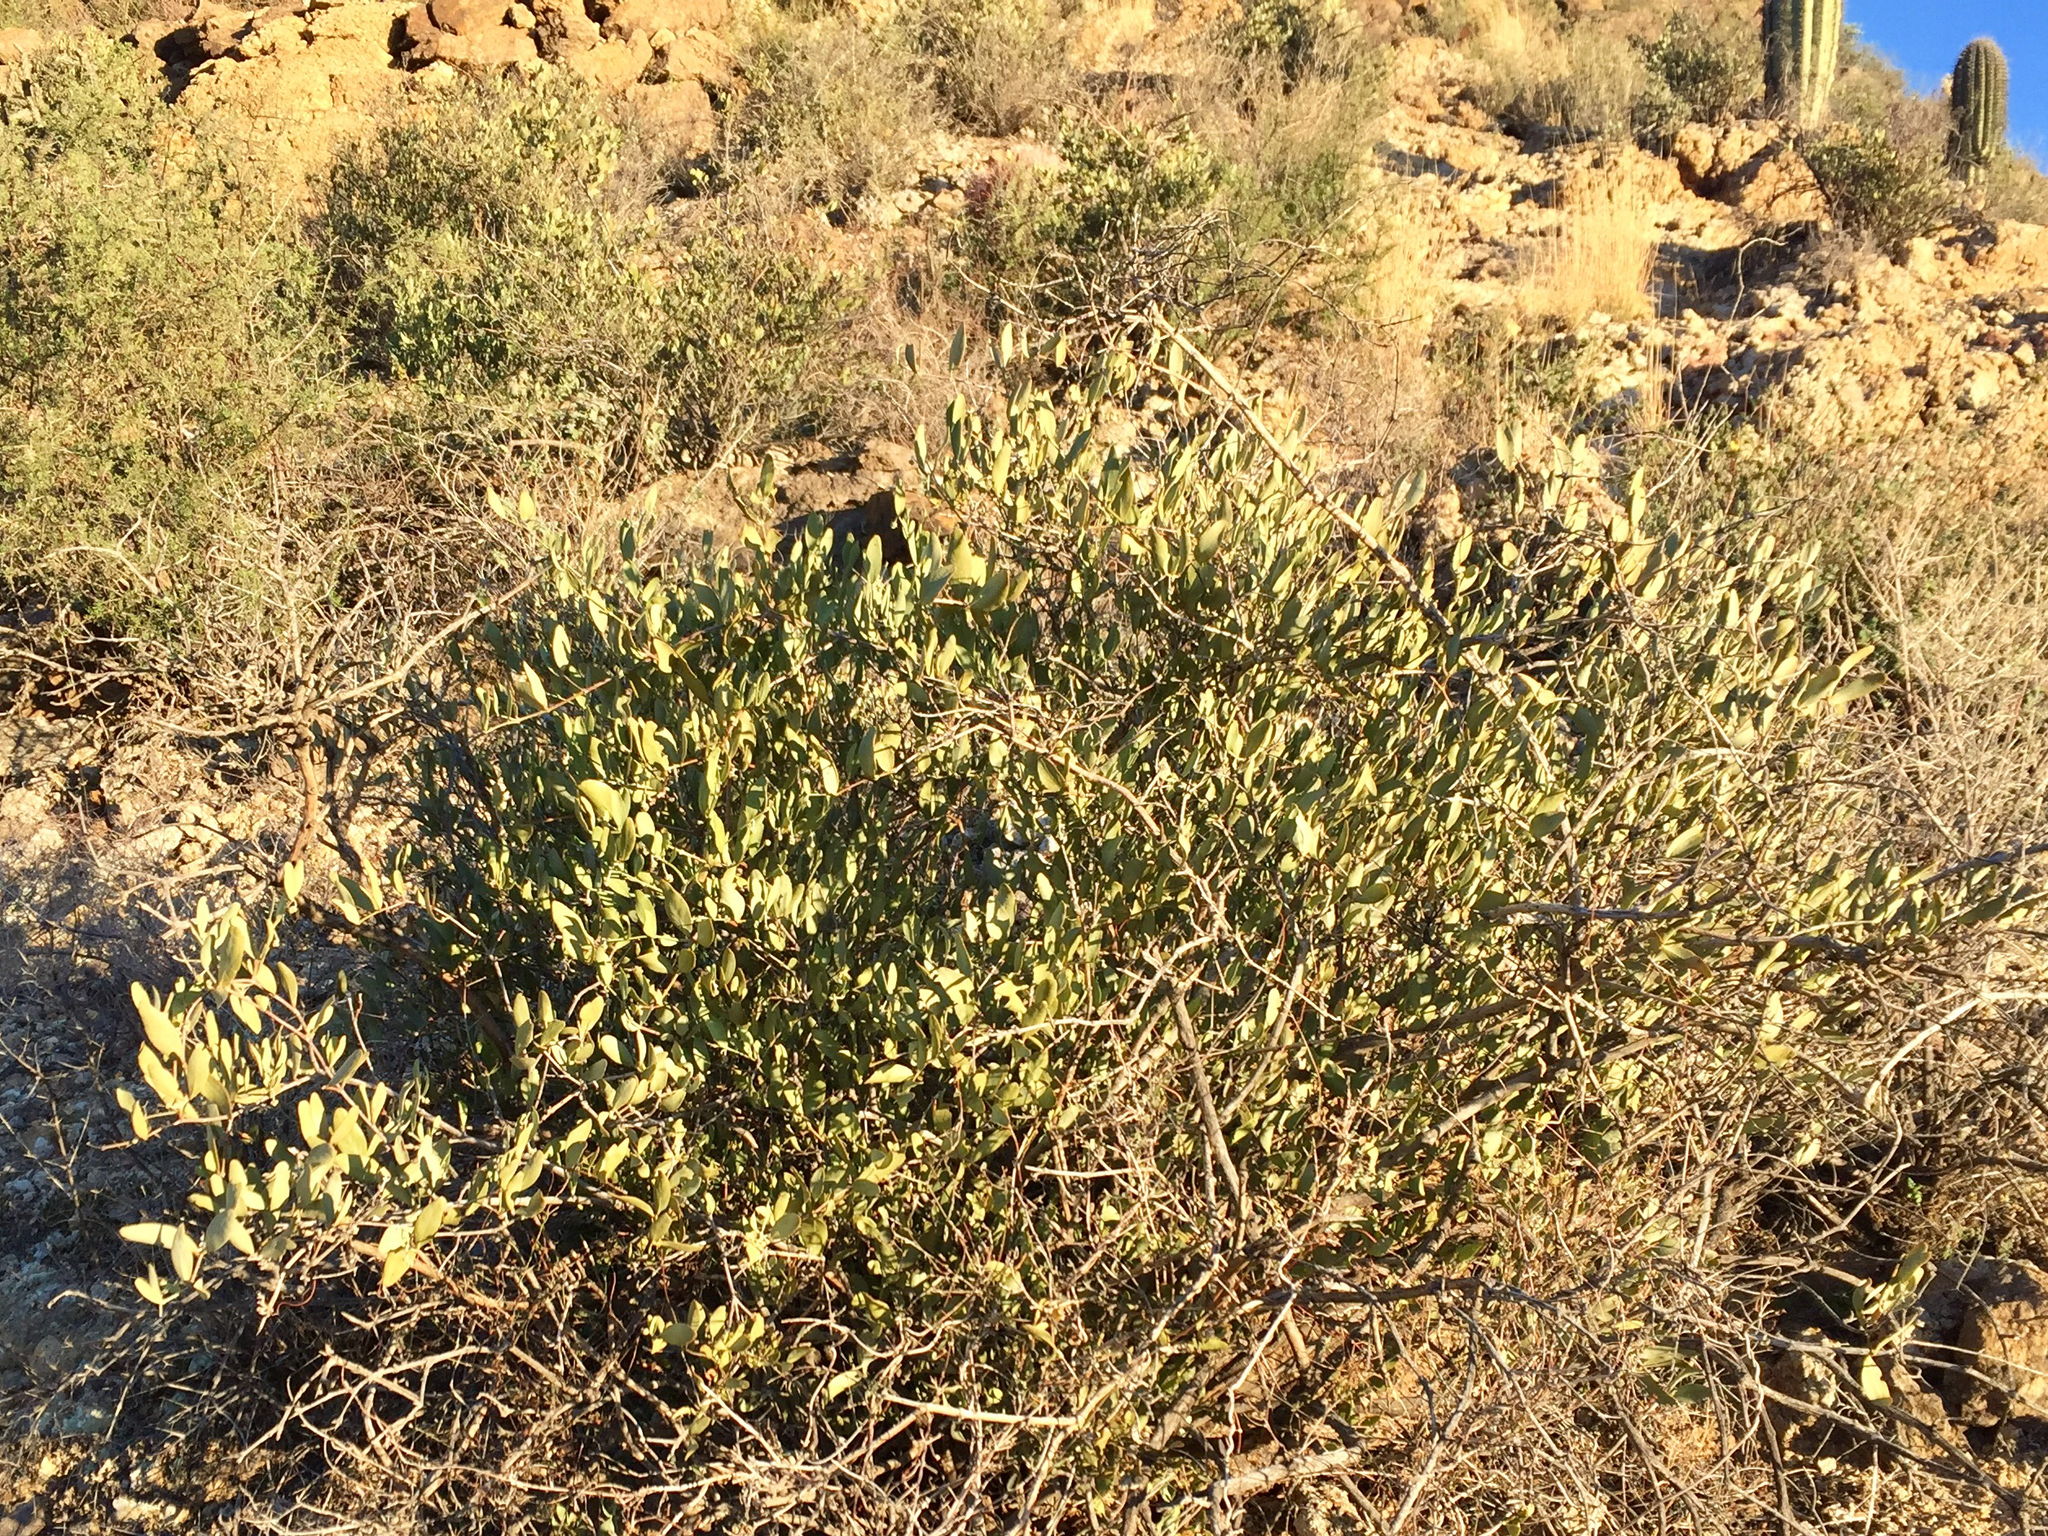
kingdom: Plantae
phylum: Tracheophyta
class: Magnoliopsida
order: Caryophyllales
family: Simmondsiaceae
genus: Simmondsia
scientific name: Simmondsia chinensis
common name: Jojoba
